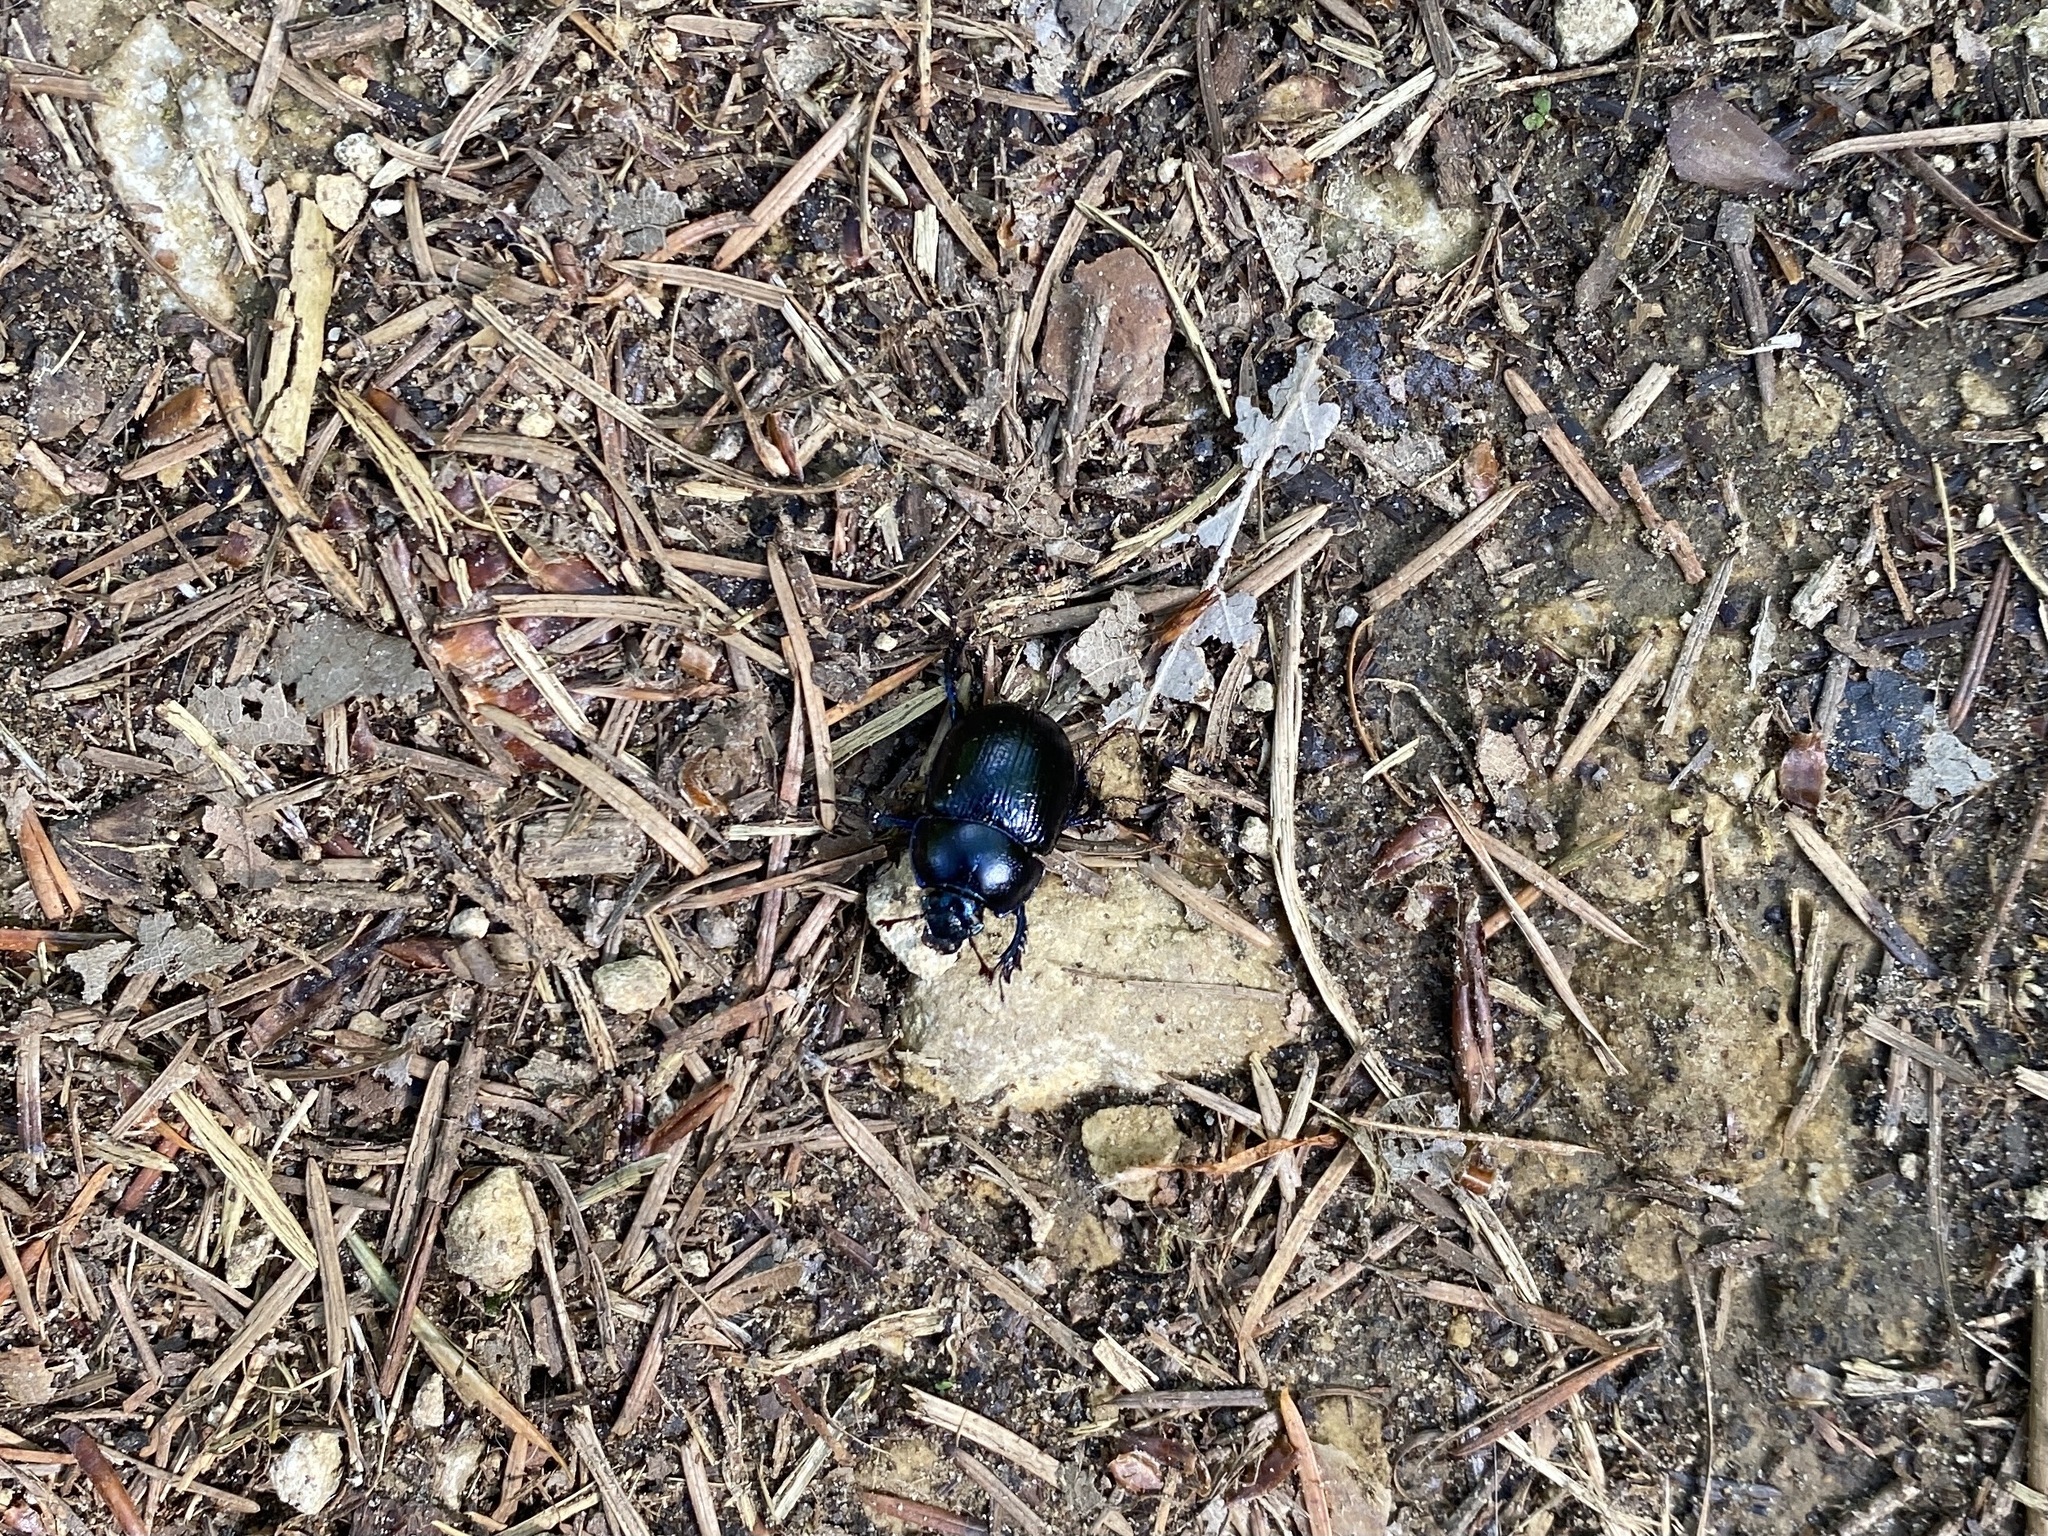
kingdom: Animalia
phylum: Arthropoda
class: Insecta
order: Coleoptera
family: Geotrupidae
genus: Anoplotrupes
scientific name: Anoplotrupes stercorosus
